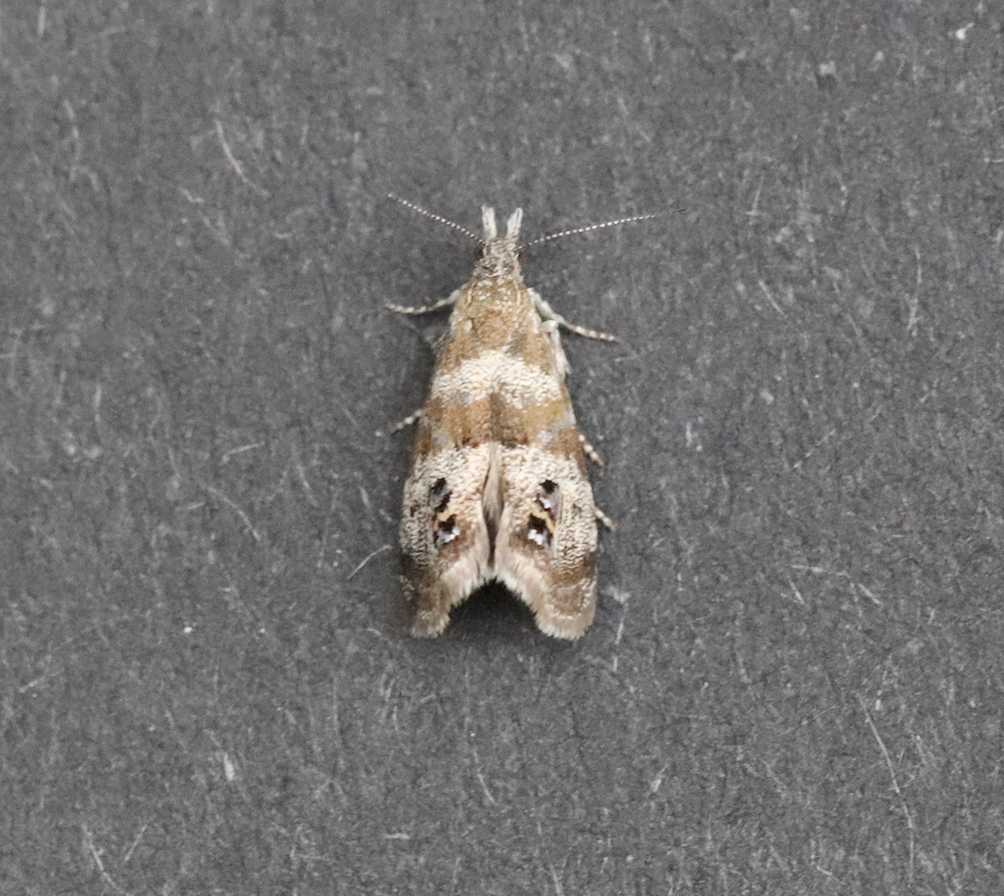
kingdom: Animalia
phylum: Arthropoda
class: Insecta
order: Lepidoptera
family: Choreutidae
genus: Caloreas
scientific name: Caloreas
